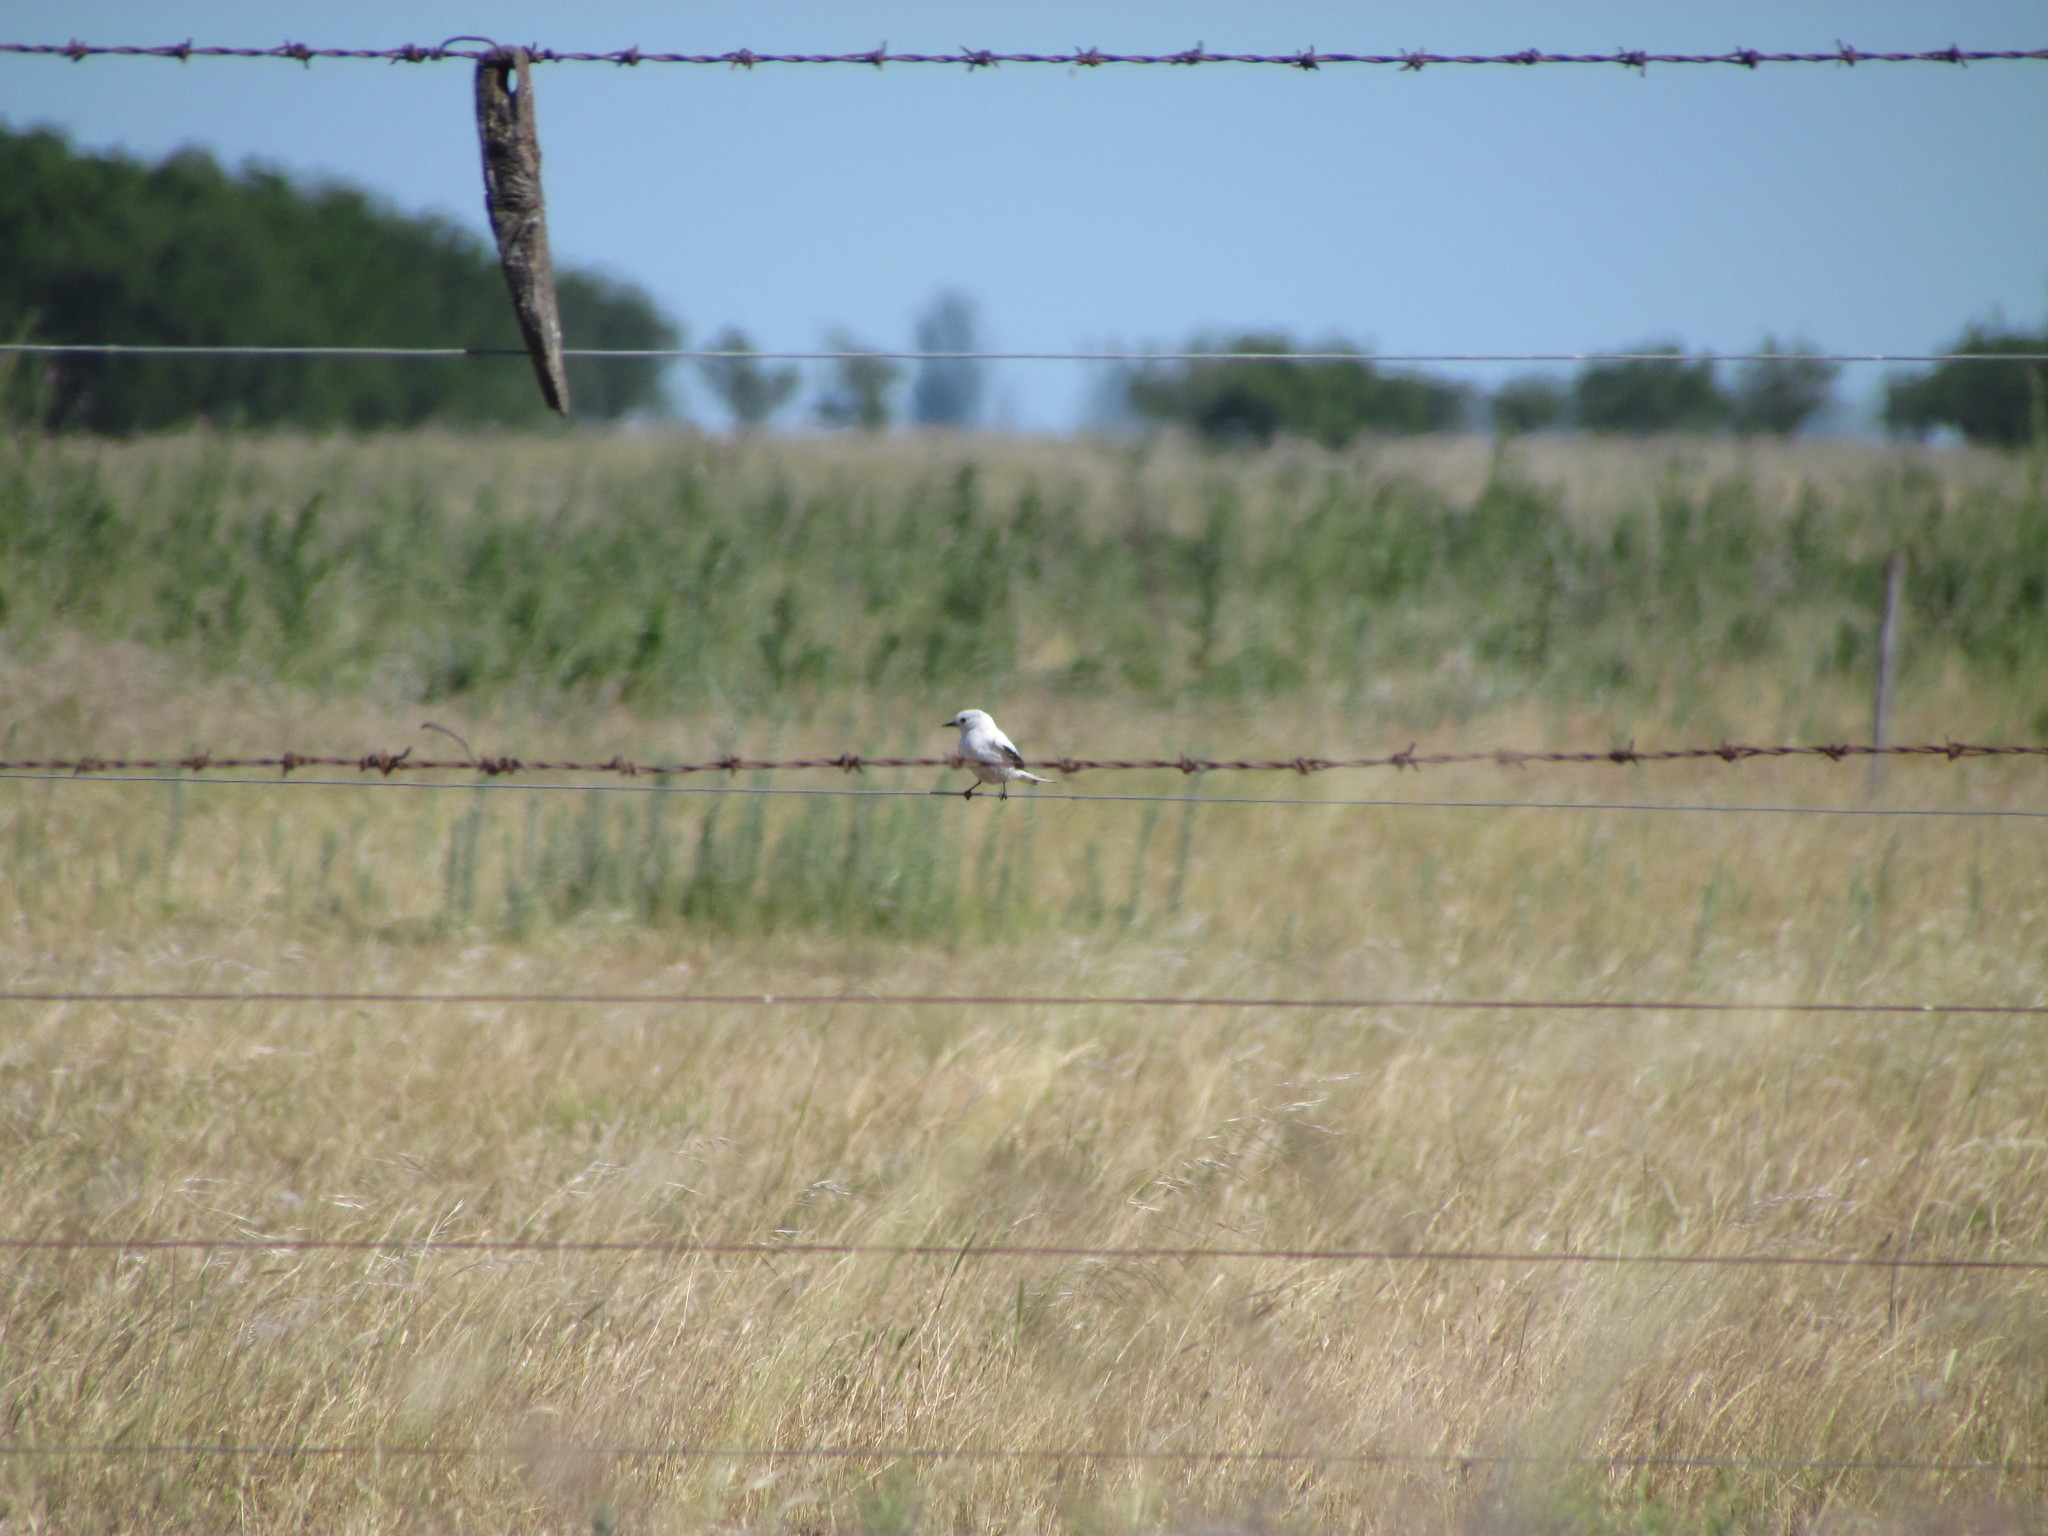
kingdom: Animalia
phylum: Chordata
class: Aves
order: Passeriformes
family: Tyrannidae
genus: Xolmis
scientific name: Xolmis irupero
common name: White monjita
